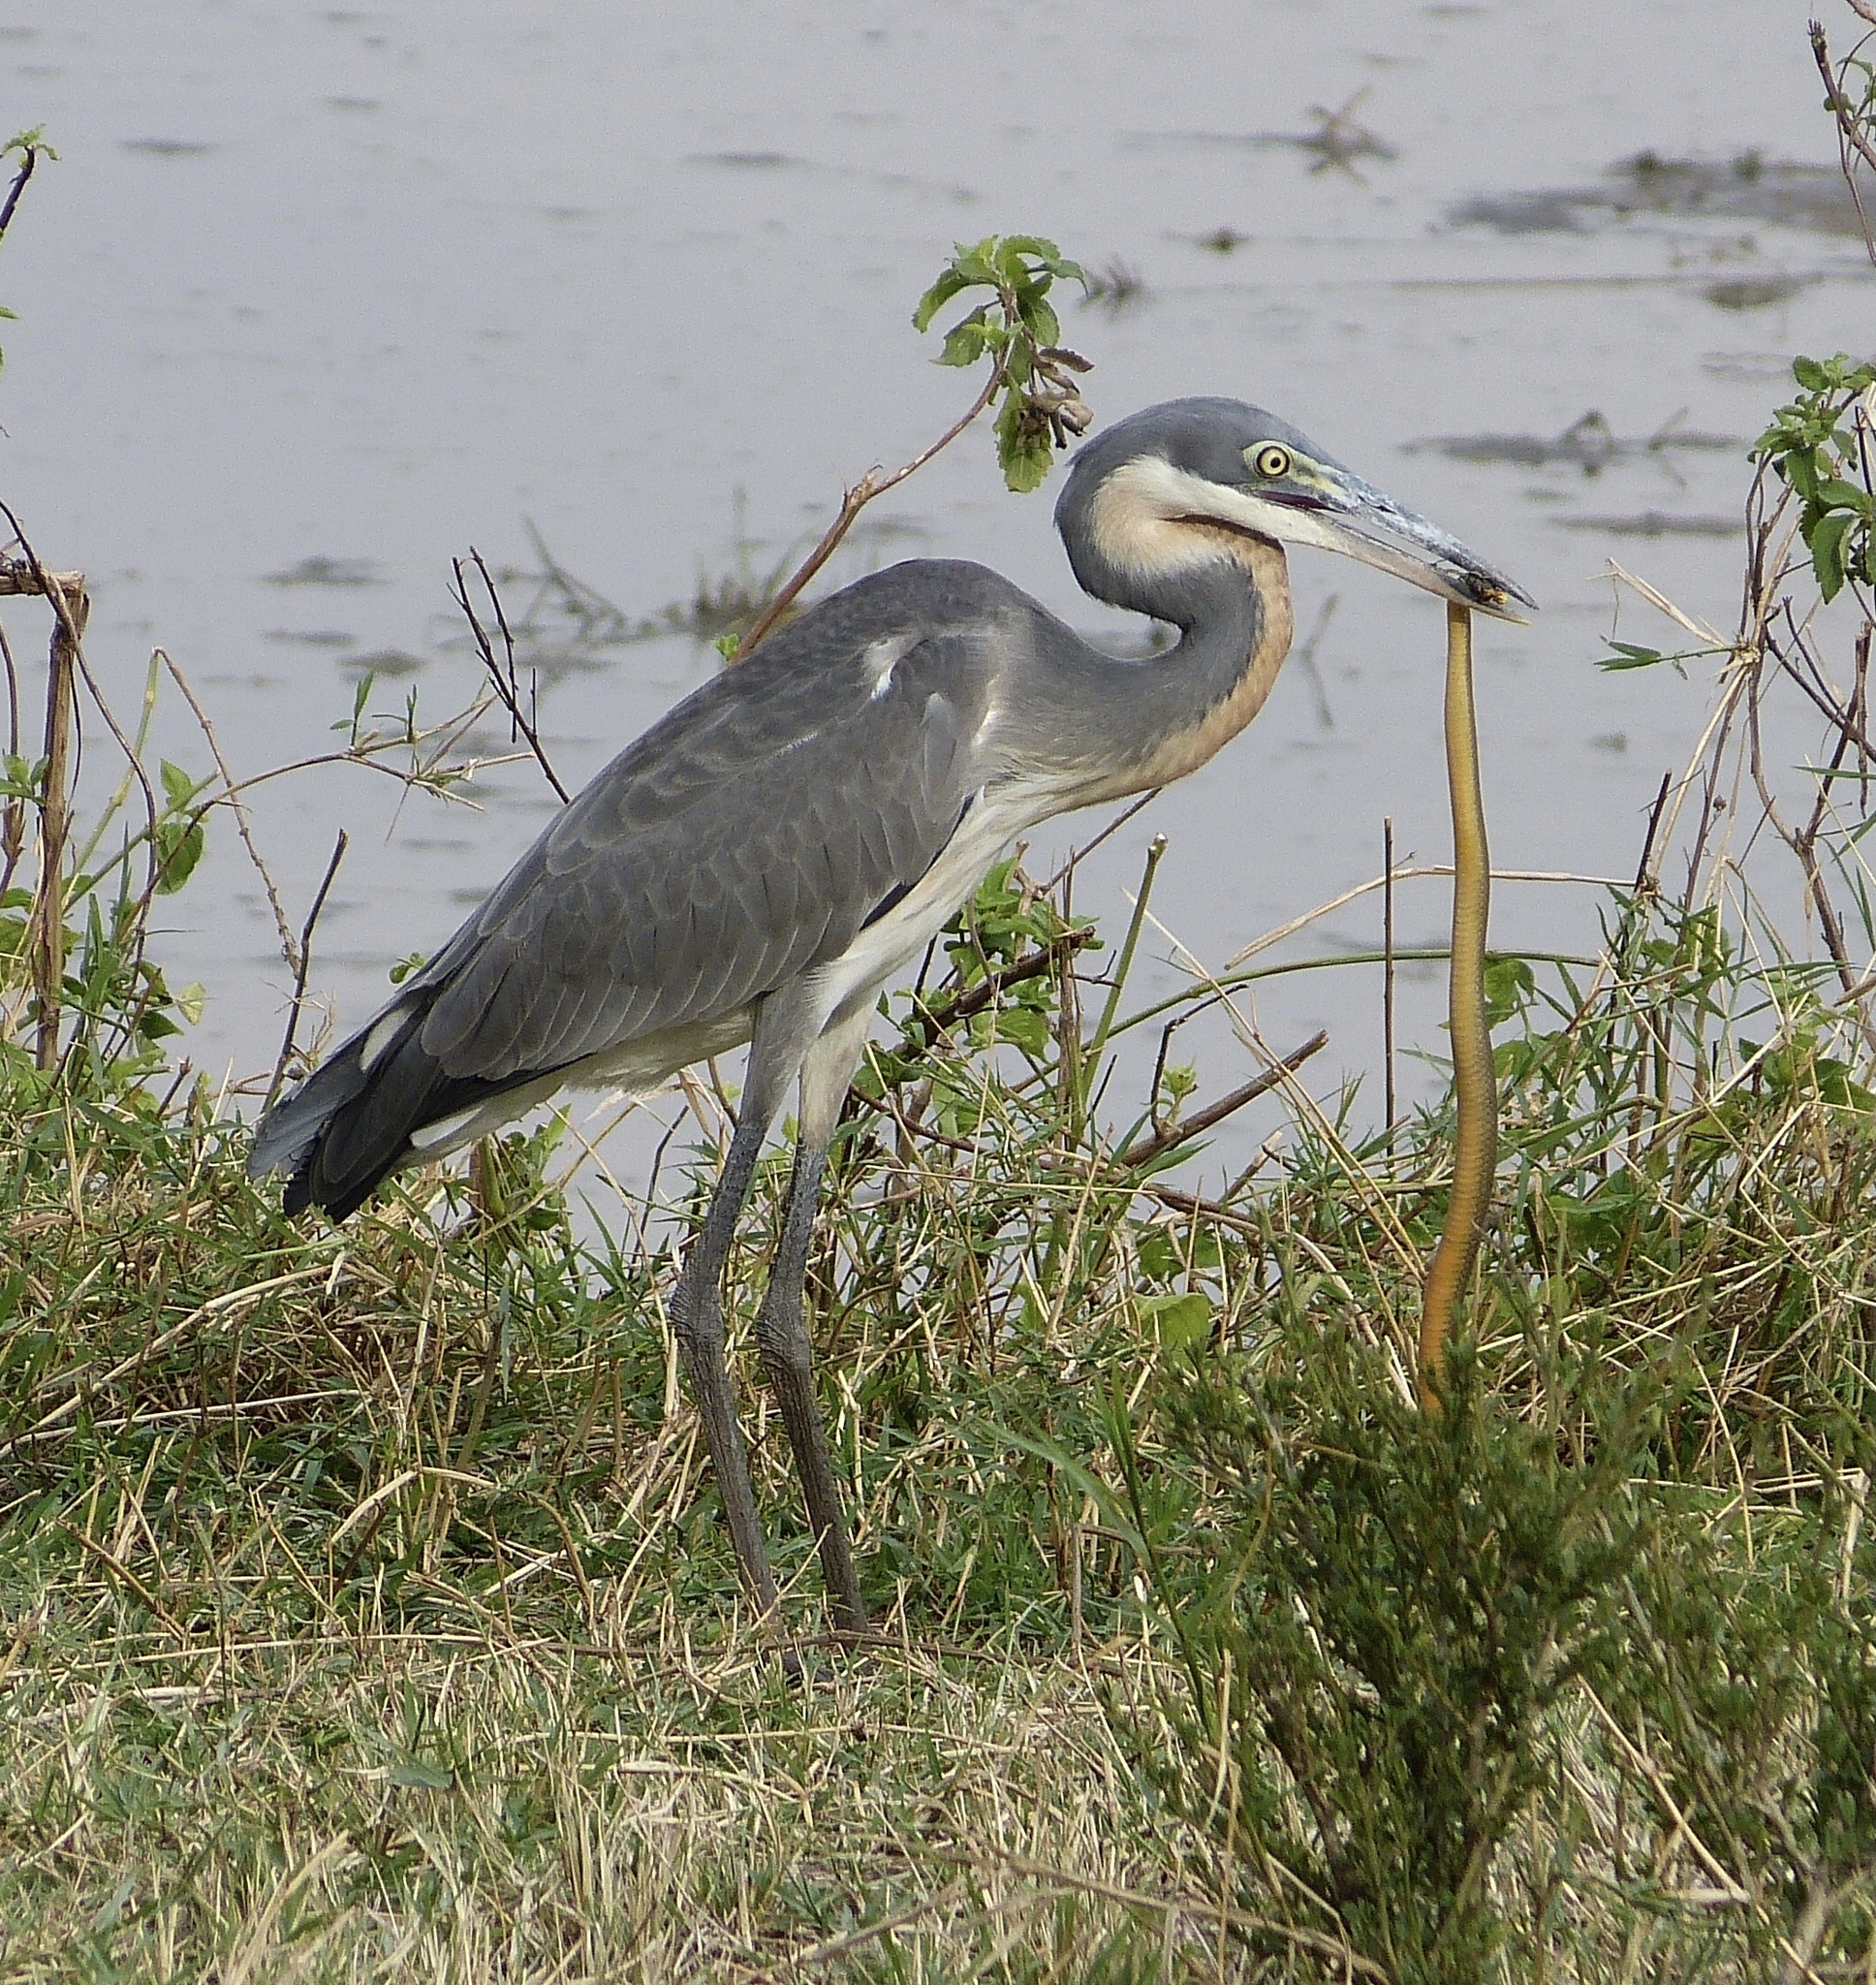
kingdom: Animalia
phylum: Chordata
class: Aves
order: Pelecaniformes
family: Ardeidae
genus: Ardea
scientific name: Ardea melanocephala
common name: Black-headed heron
